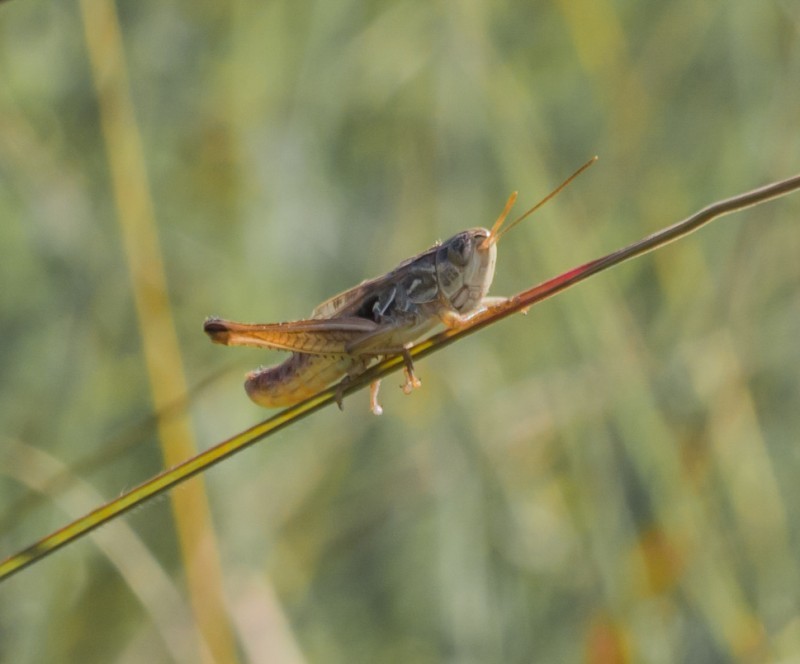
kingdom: Animalia
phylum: Arthropoda
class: Insecta
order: Orthoptera
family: Acrididae
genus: Stenobothrus
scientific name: Stenobothrus crassipes
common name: Pygmy toothed grasshopper
